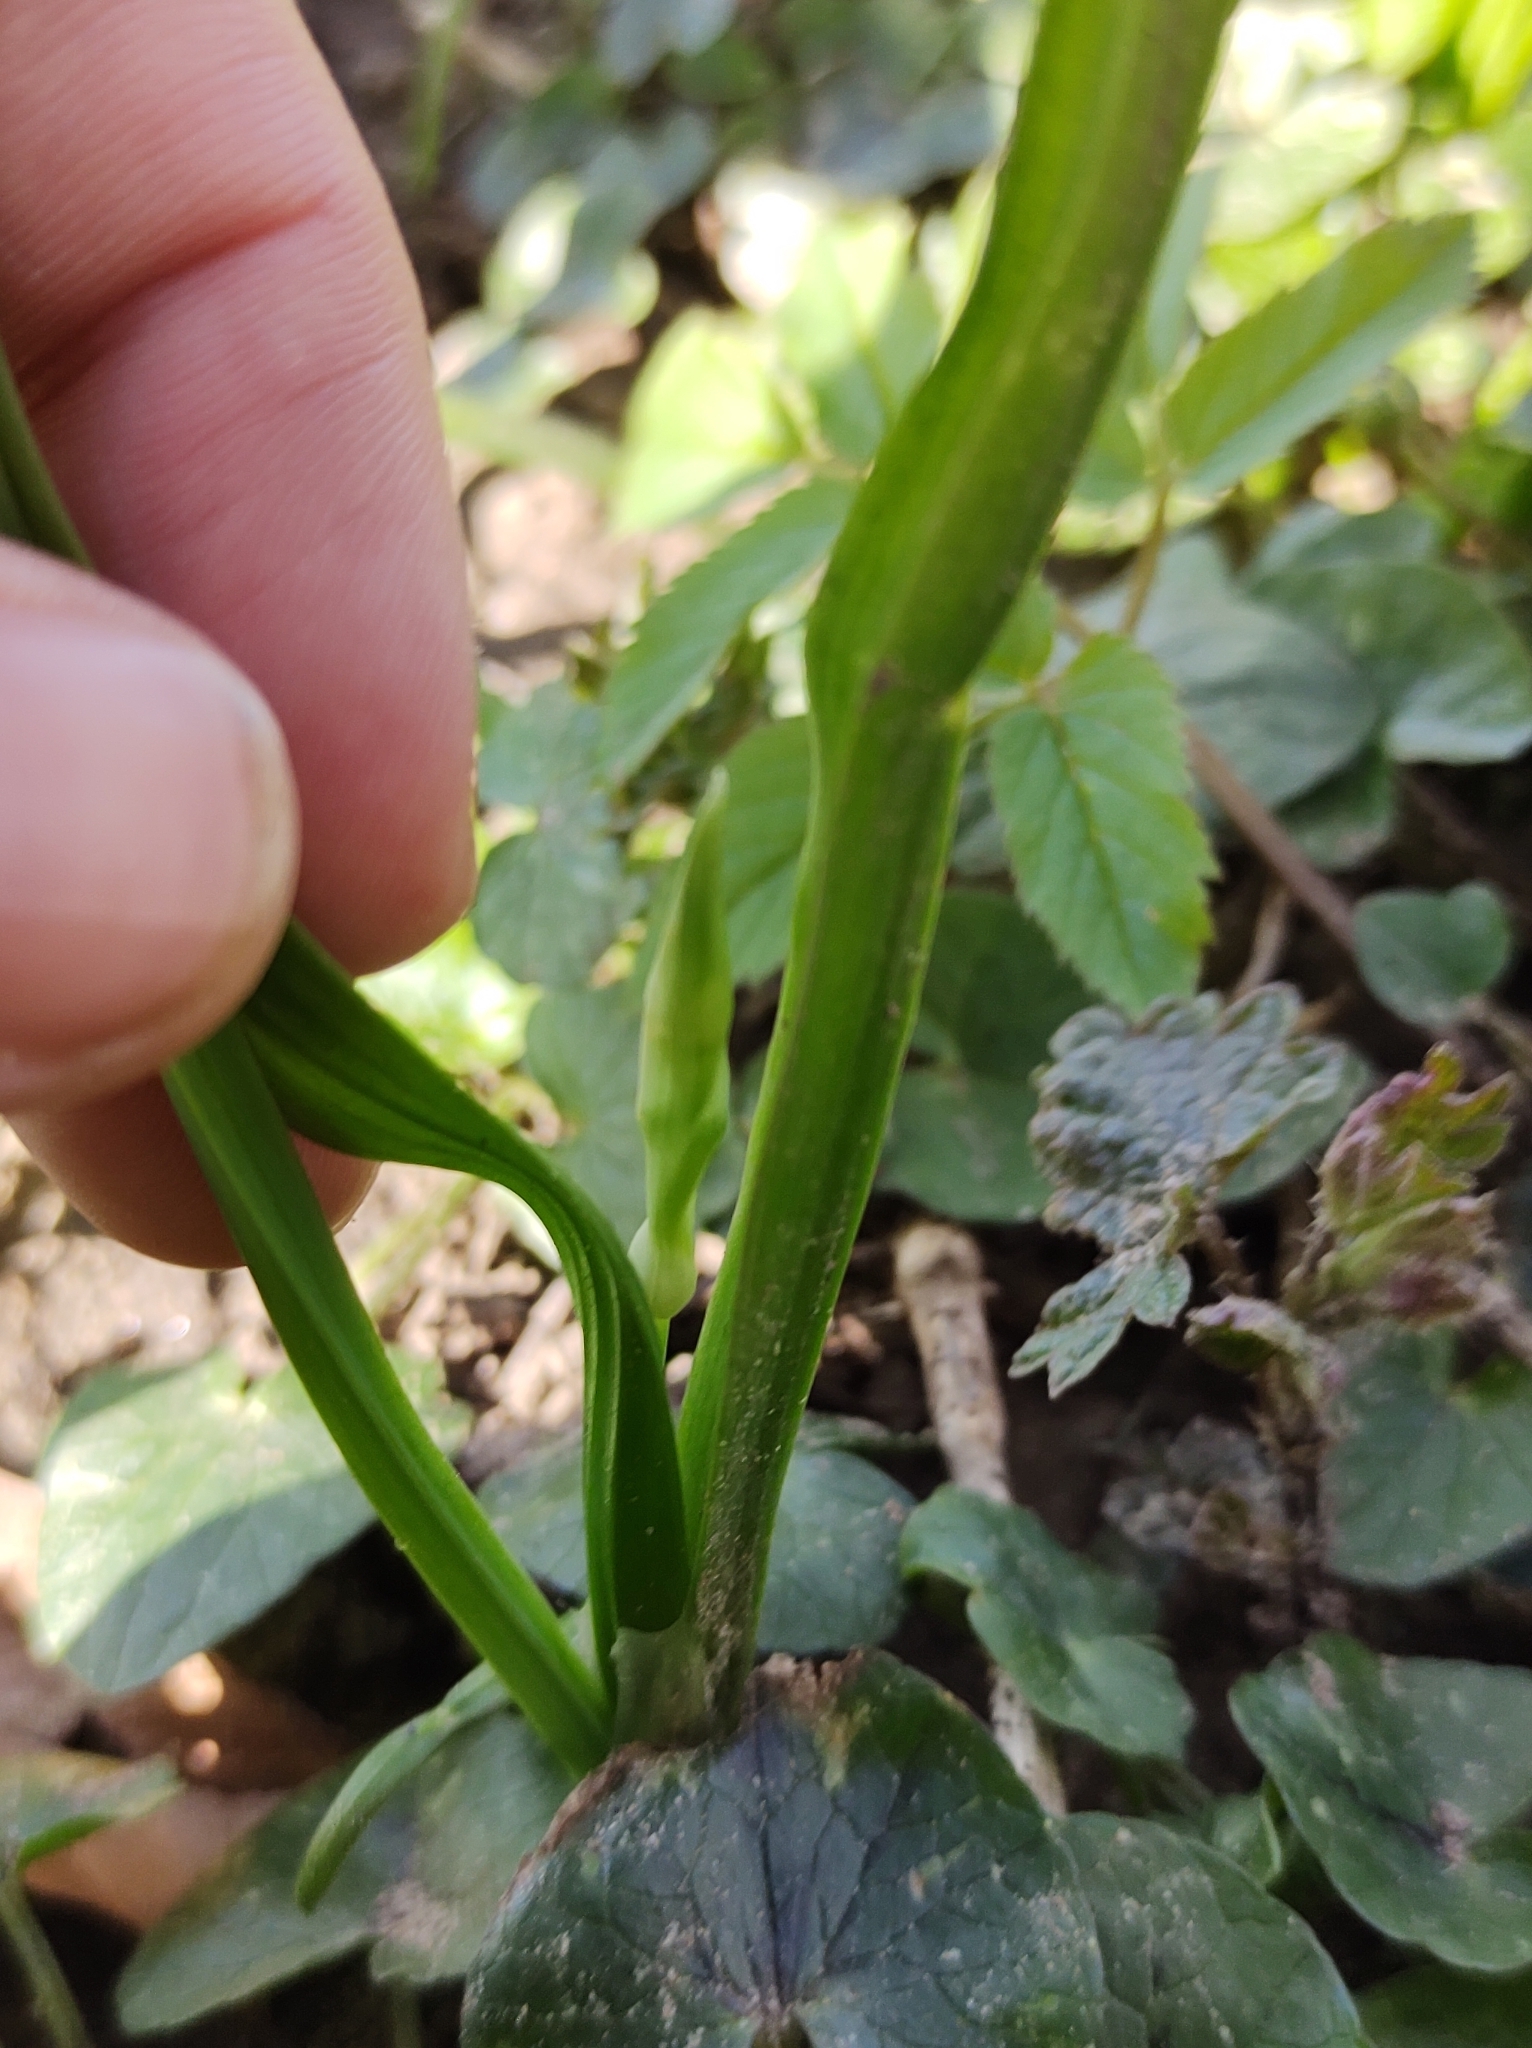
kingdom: Plantae
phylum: Tracheophyta
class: Liliopsida
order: Asparagales
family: Amaryllidaceae
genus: Allium
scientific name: Allium paradoxum
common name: Few-flowered garlic
